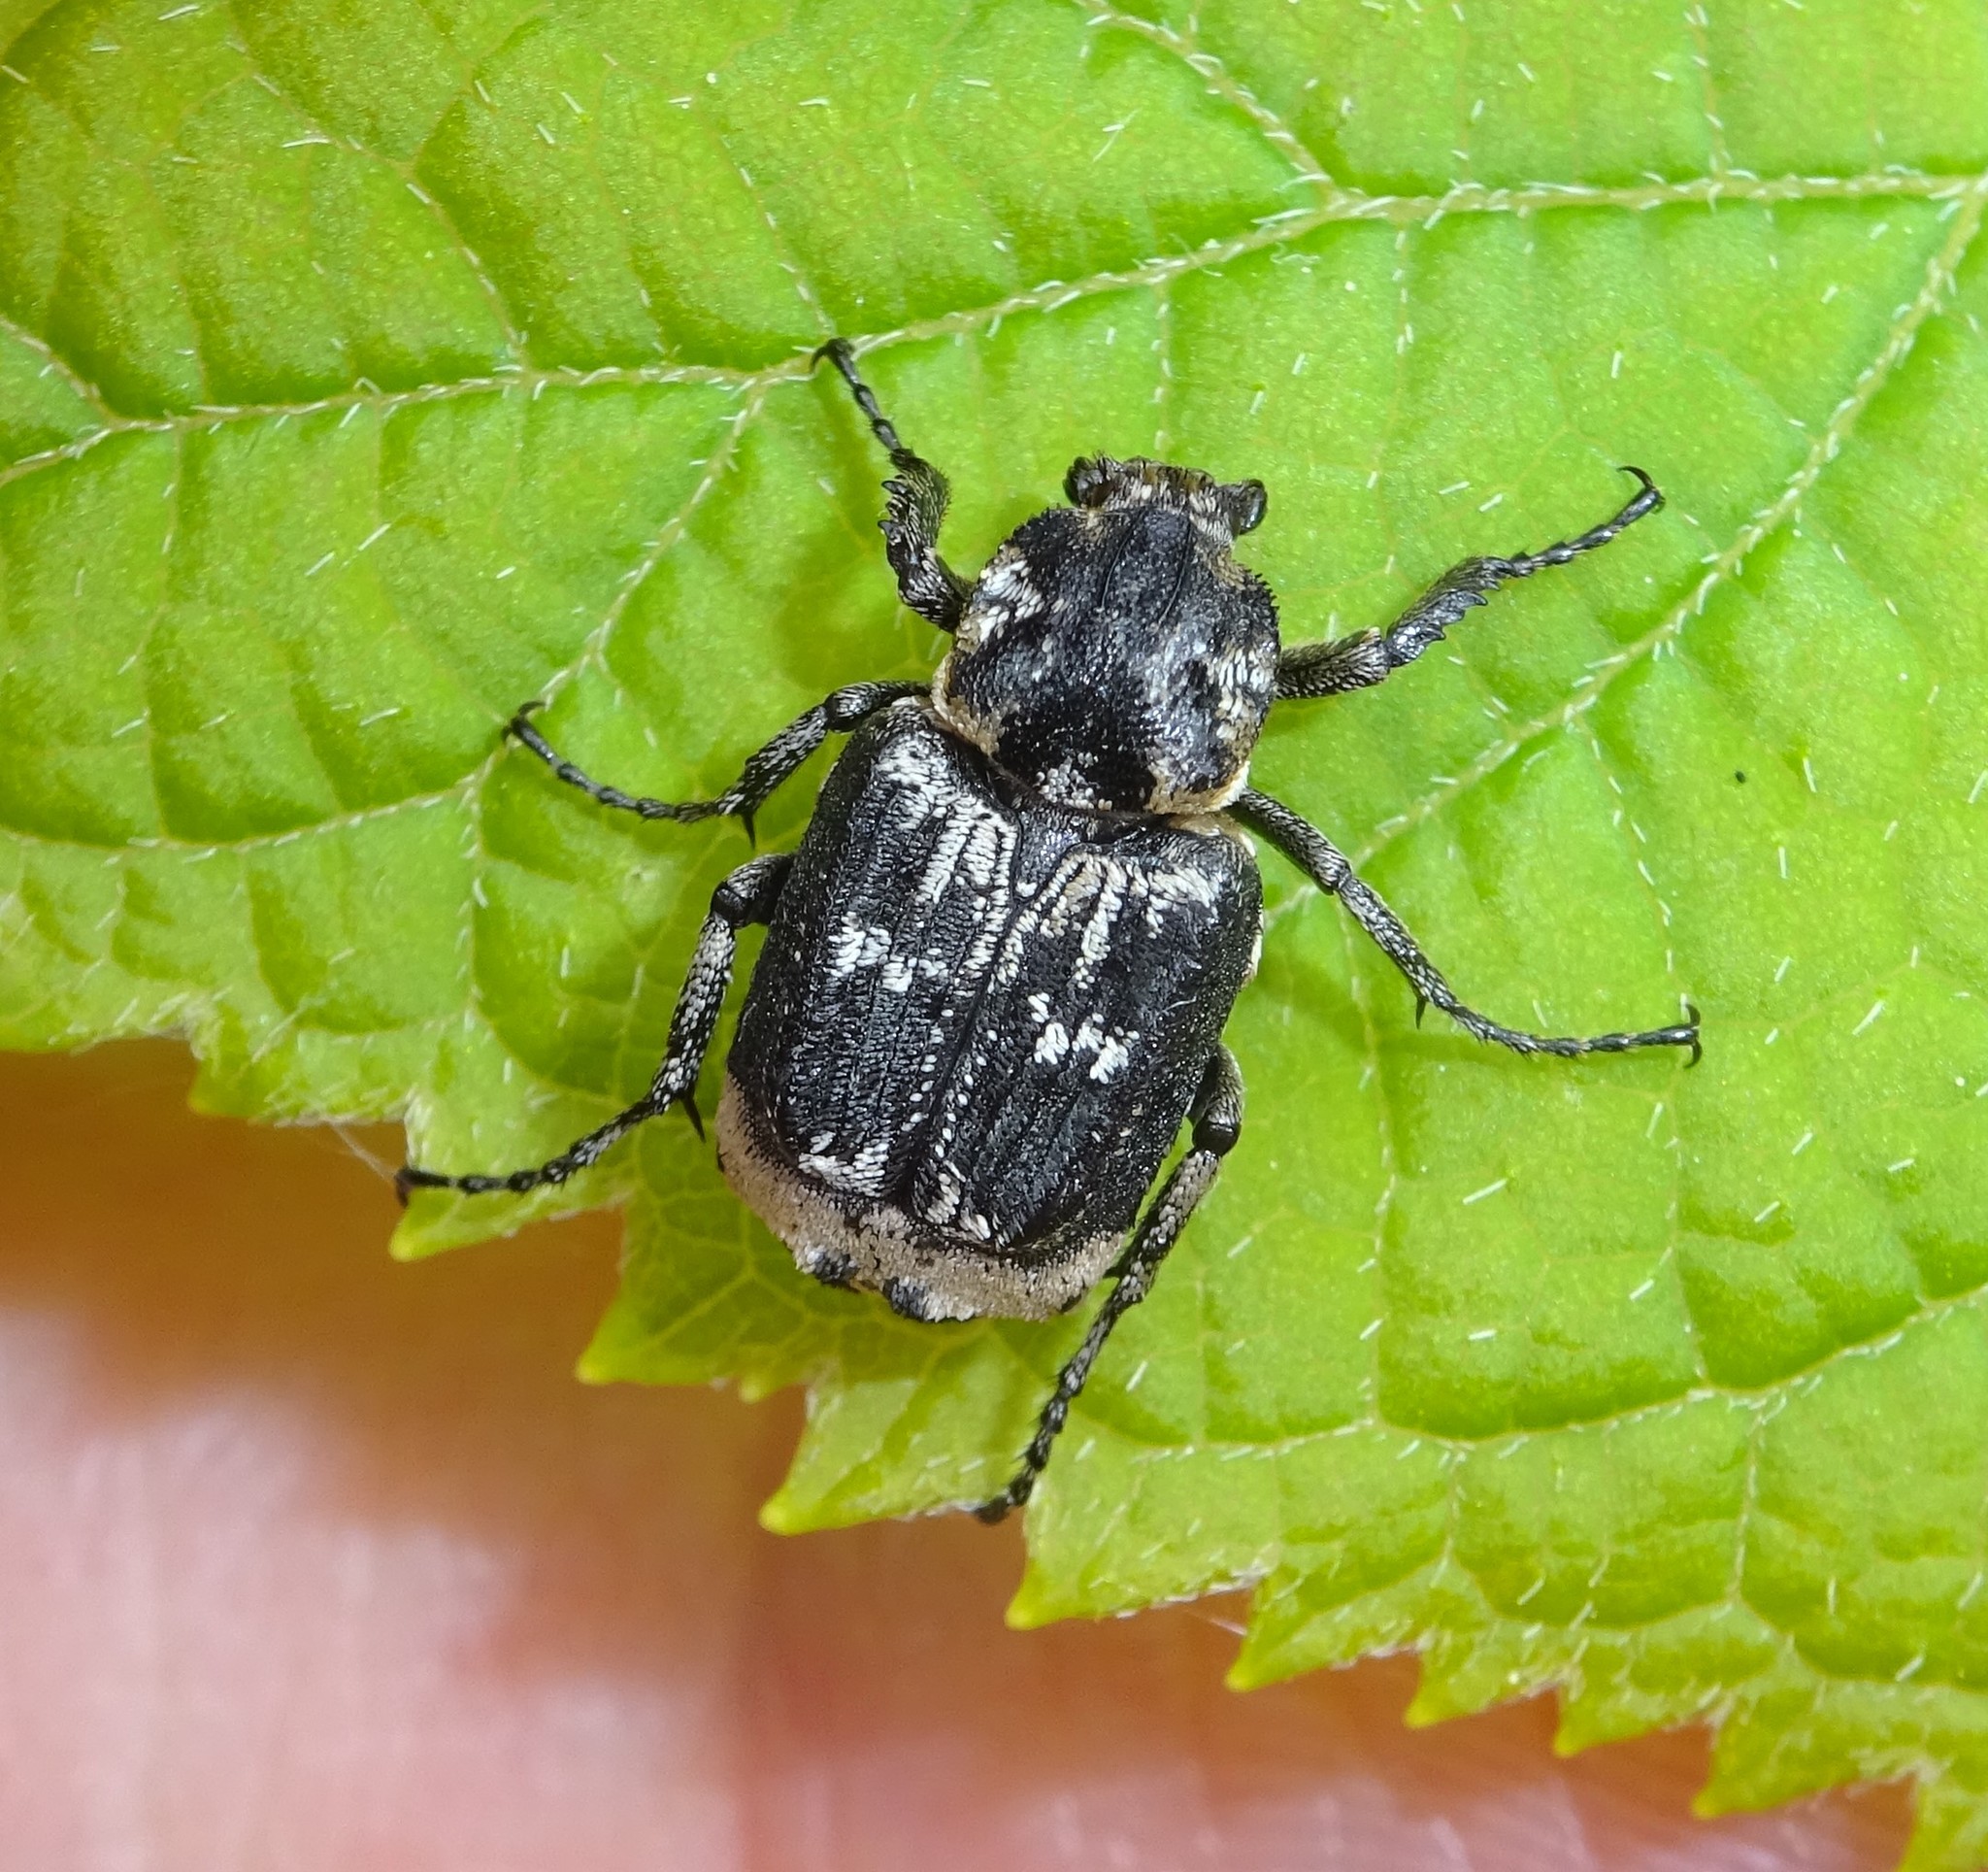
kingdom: Animalia
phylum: Arthropoda
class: Insecta
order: Coleoptera
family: Scarabaeidae
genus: Valgus
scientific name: Valgus hemipterus
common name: Bug flower chafer
